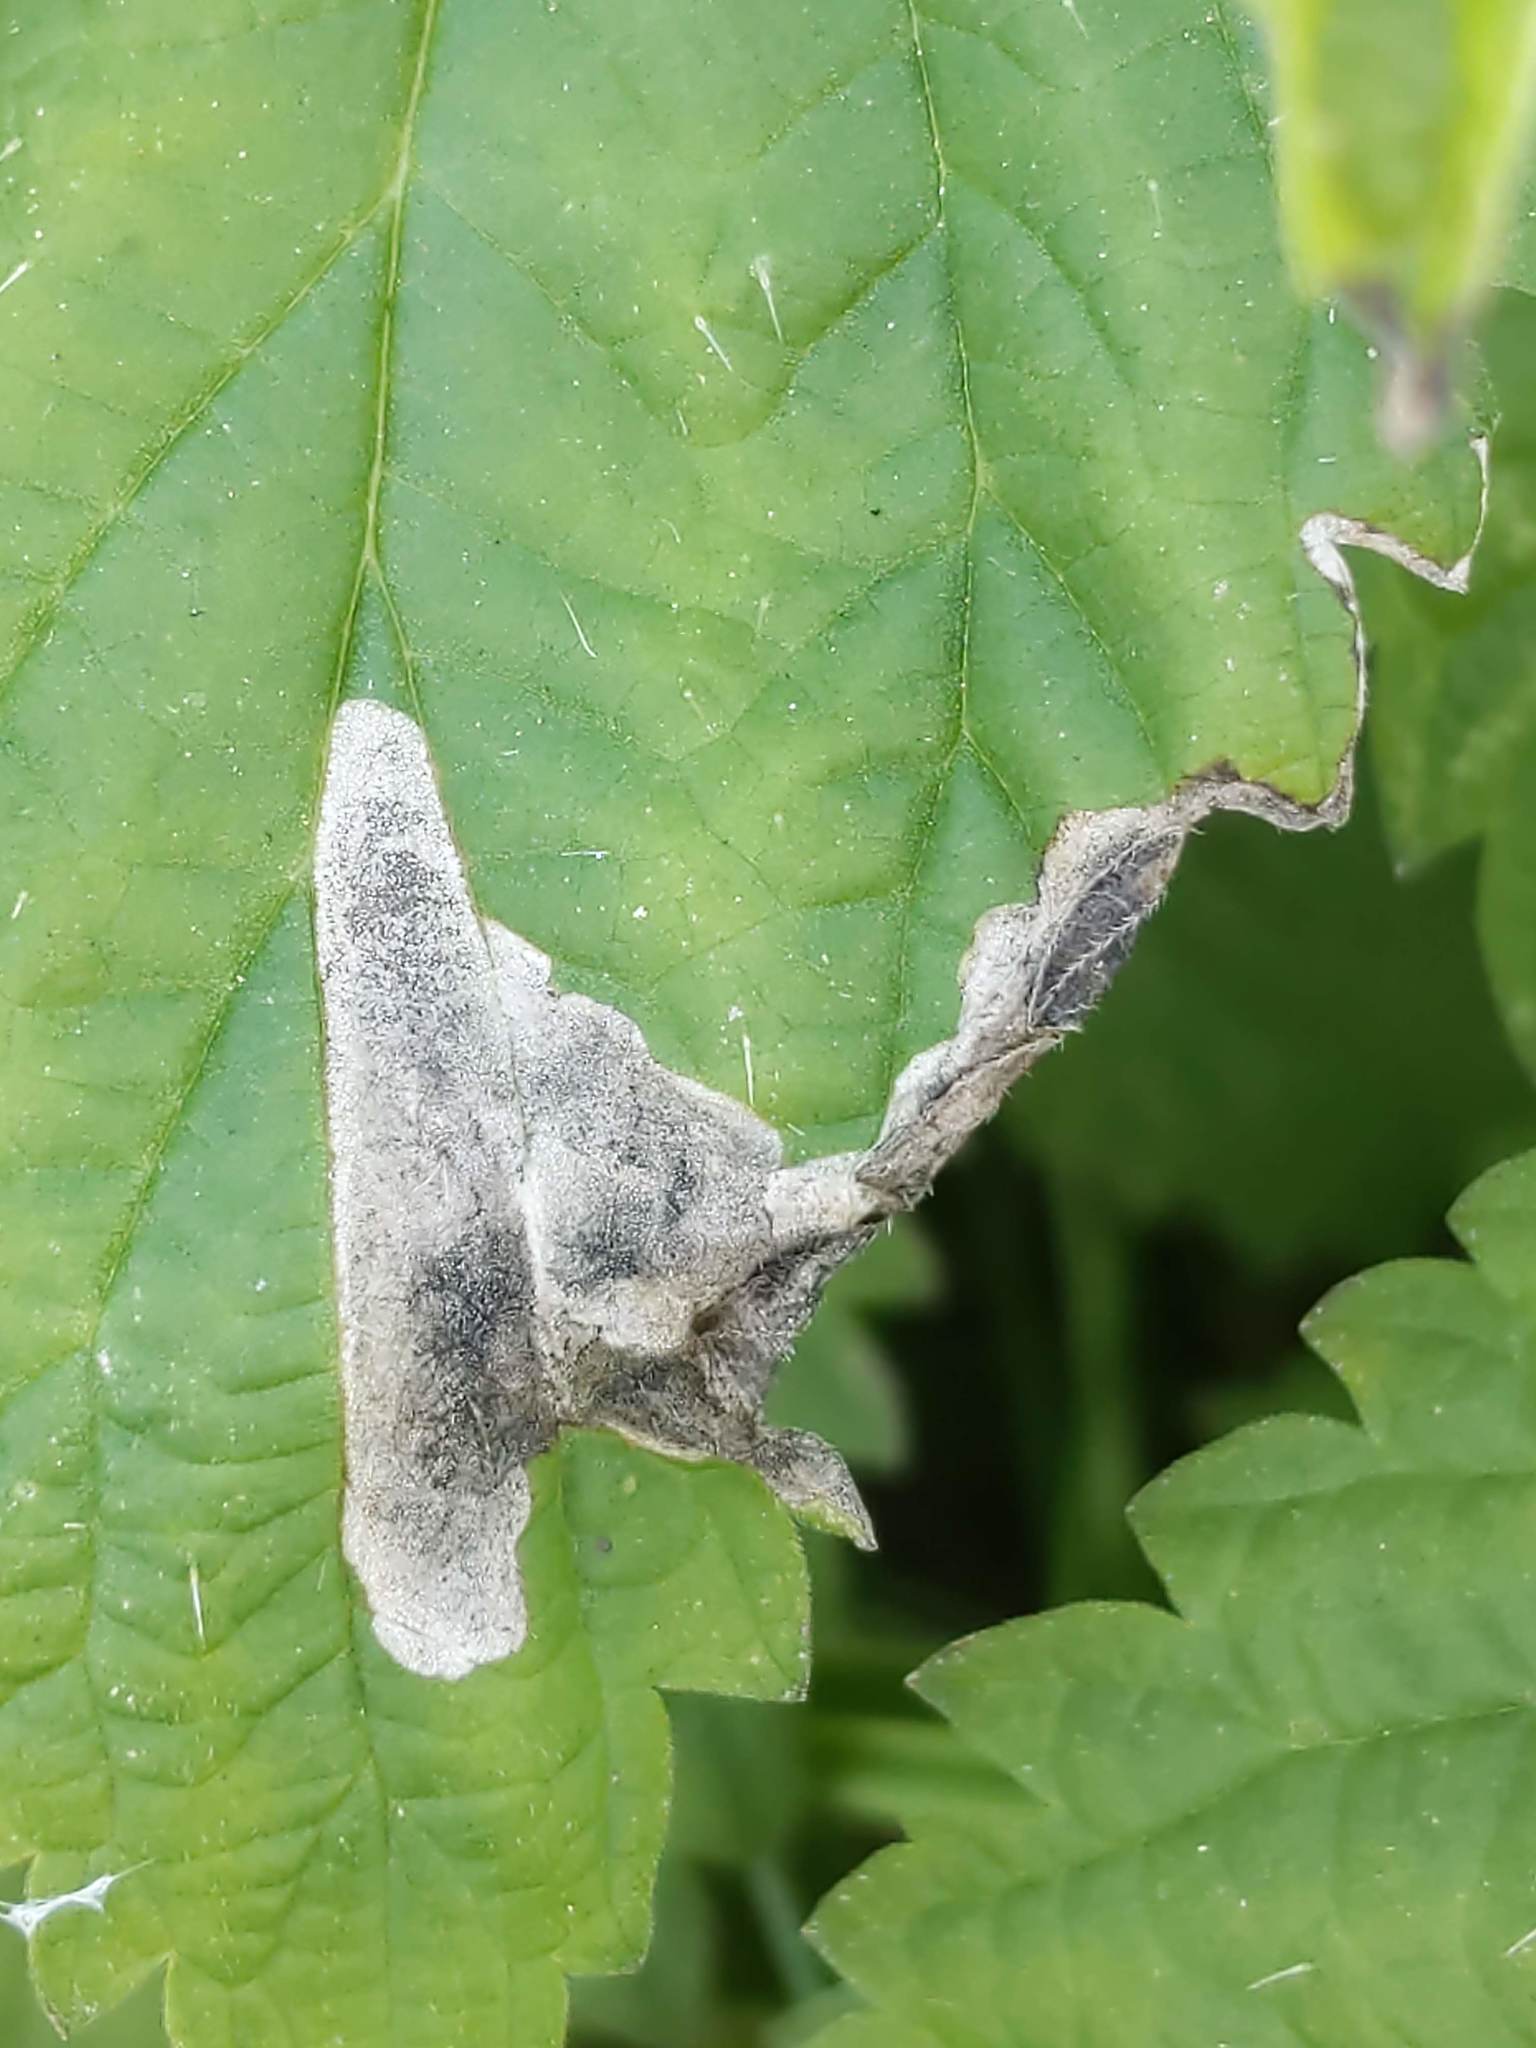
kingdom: Animalia
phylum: Arthropoda
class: Insecta
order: Diptera
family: Agromyzidae
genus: Agromyza
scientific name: Agromyza pseudoreptans
